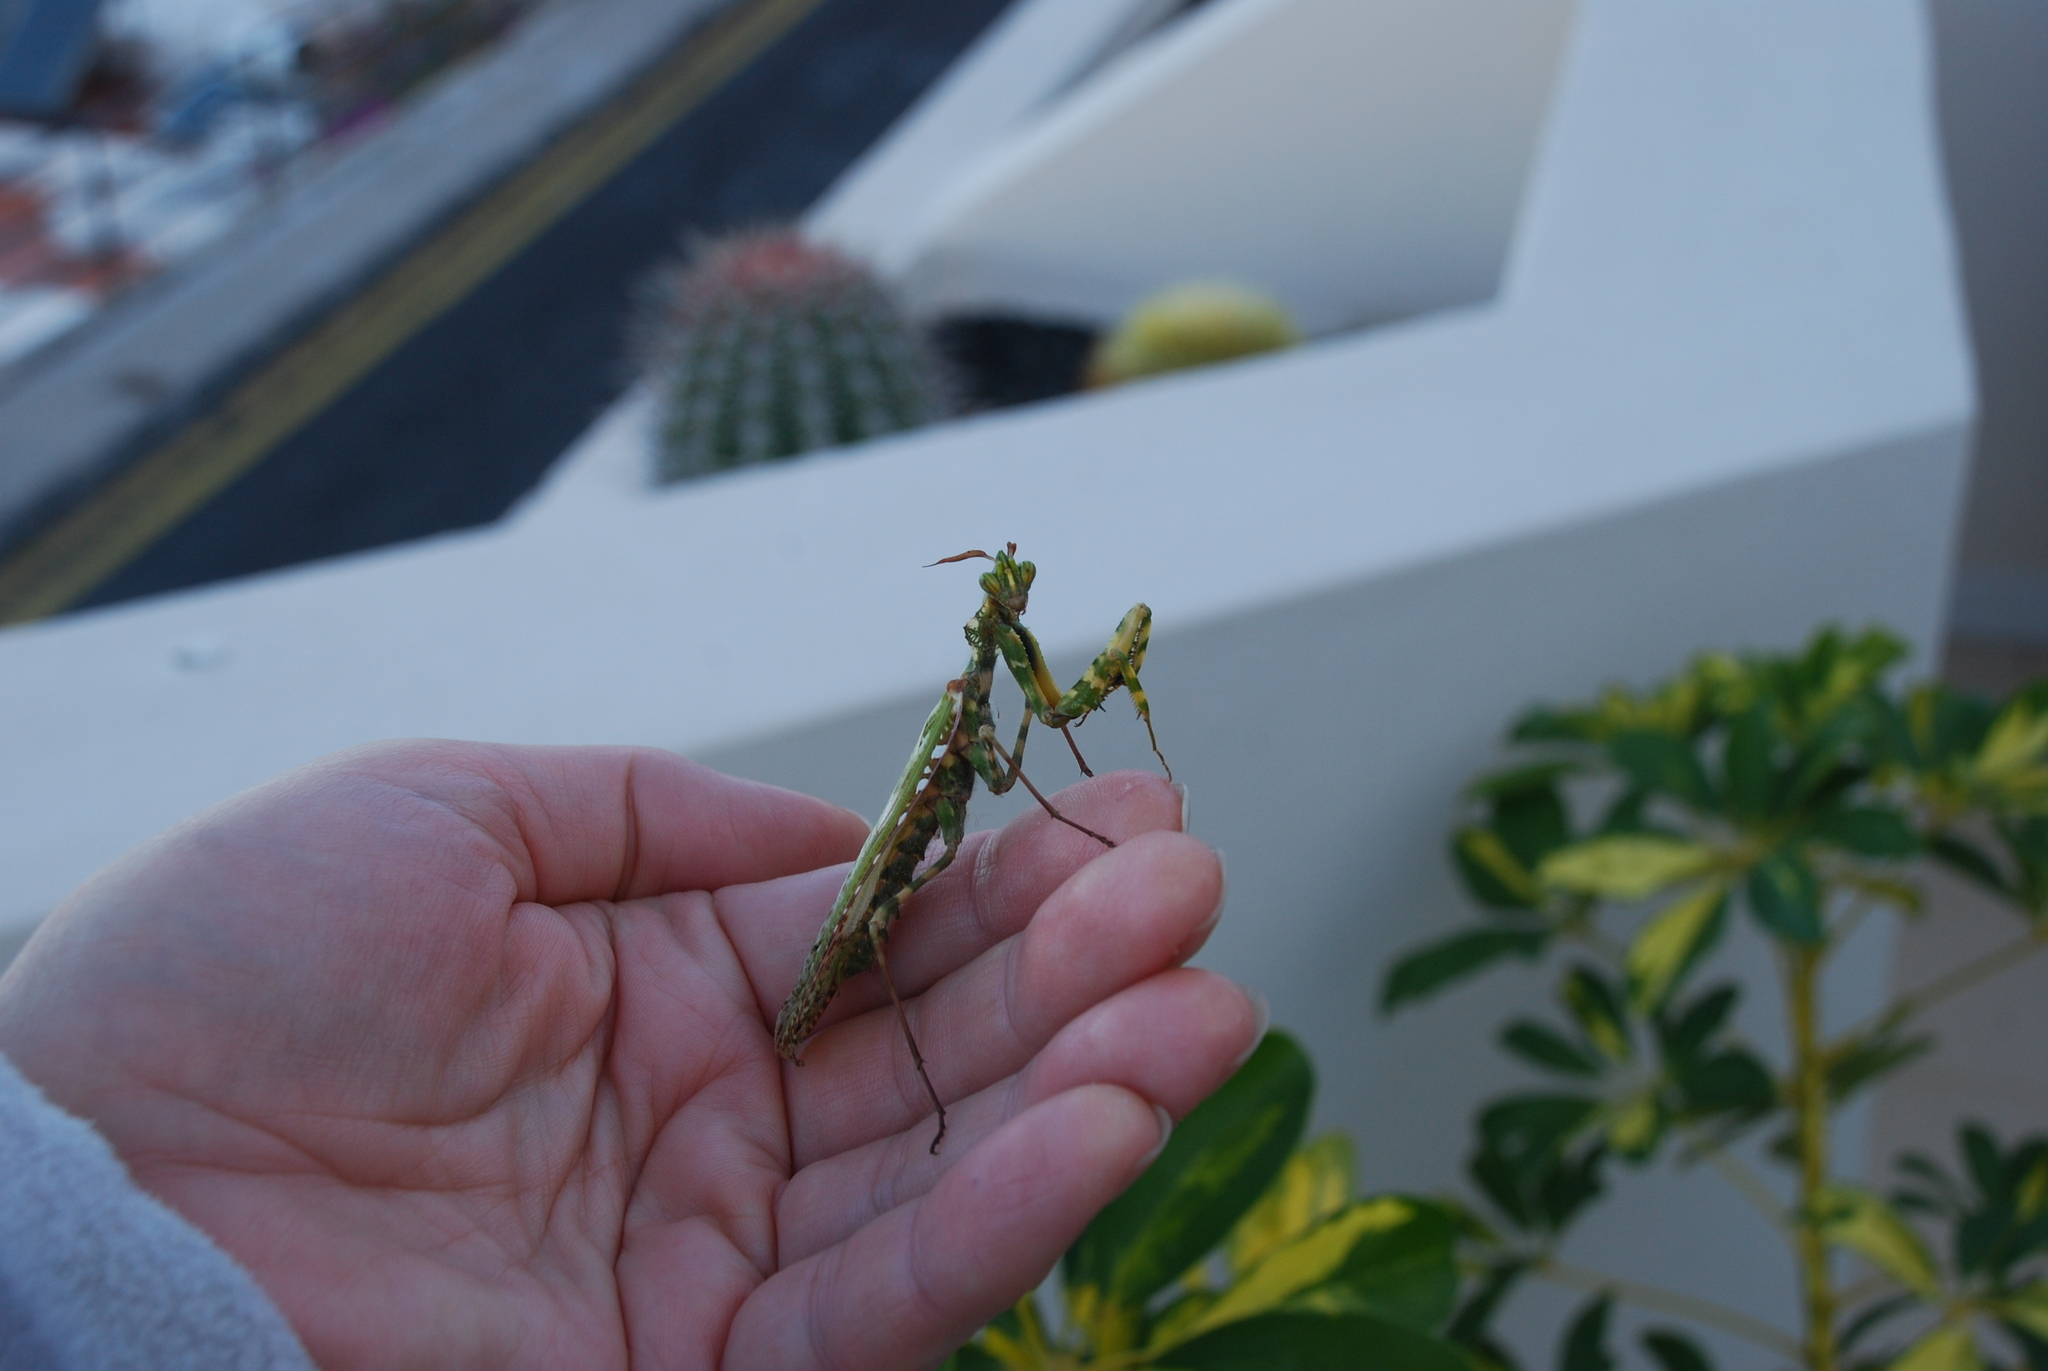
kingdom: Animalia
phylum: Arthropoda
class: Insecta
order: Mantodea
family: Empusidae
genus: Blepharopsis
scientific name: Blepharopsis mendica
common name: Devil's flower mantis
